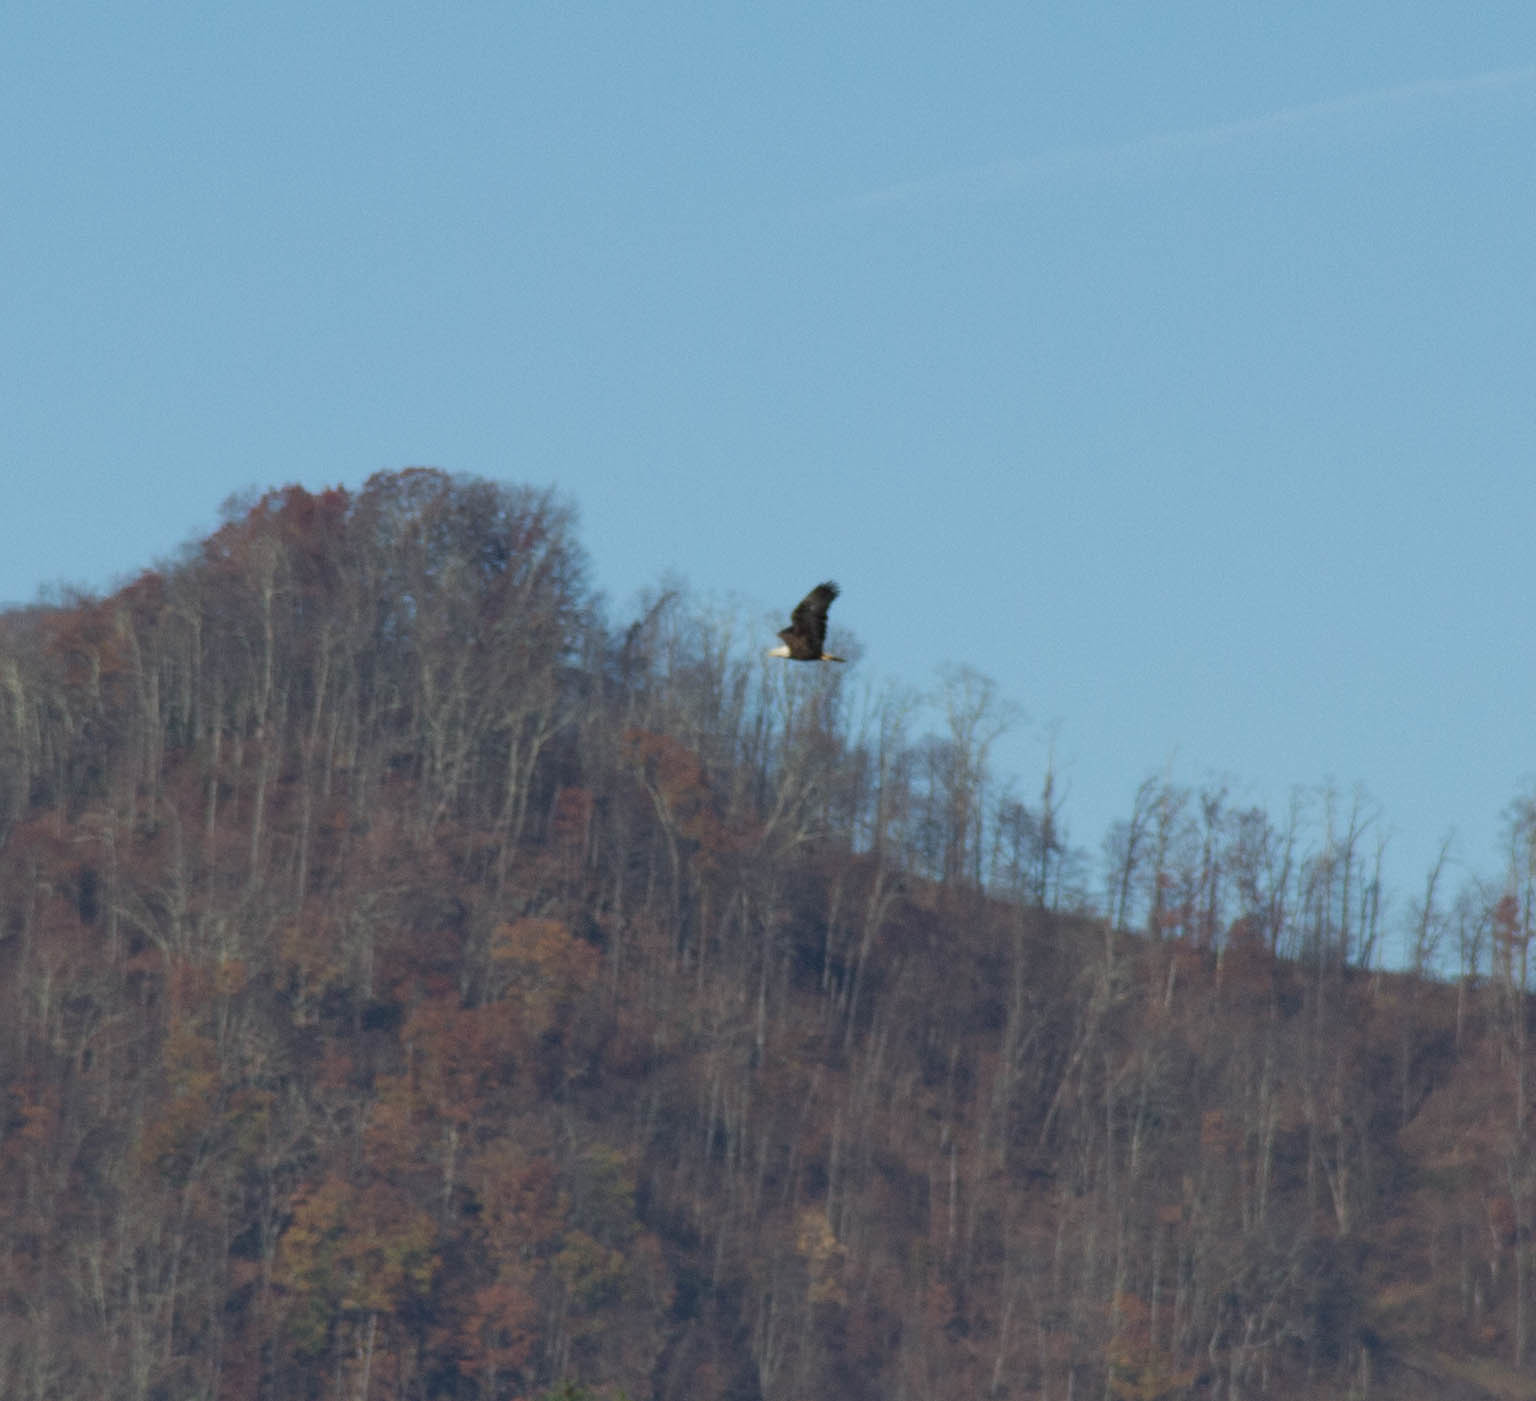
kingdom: Animalia
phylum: Chordata
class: Aves
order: Accipitriformes
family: Accipitridae
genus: Haliaeetus
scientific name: Haliaeetus leucocephalus
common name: Bald eagle
